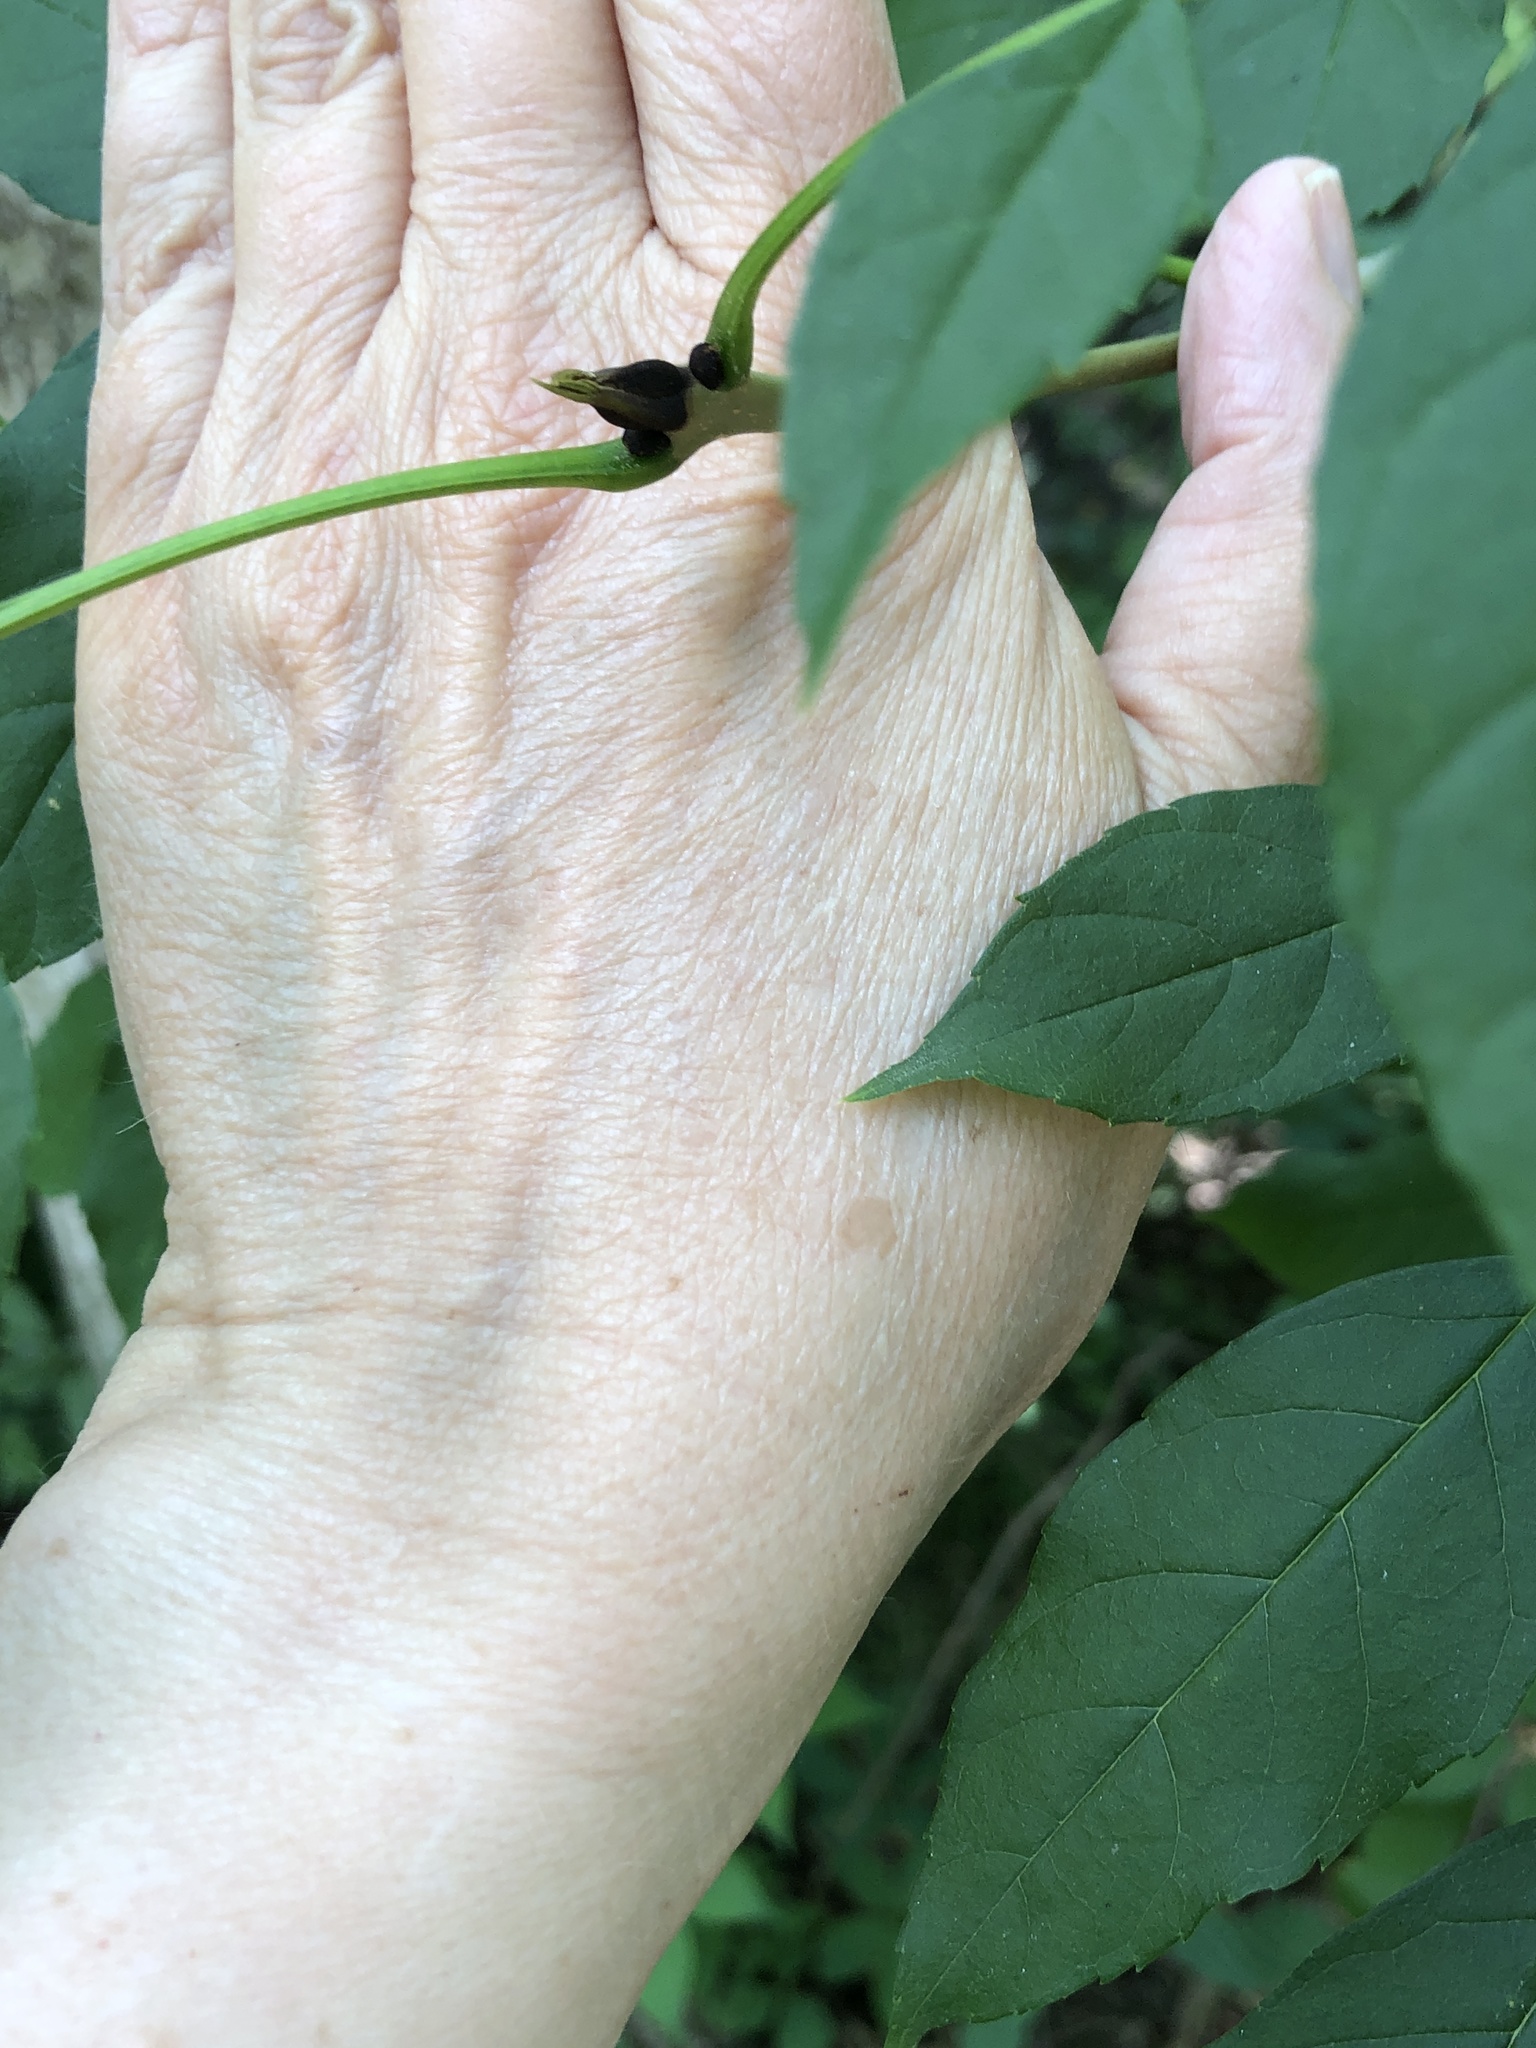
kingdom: Plantae
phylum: Tracheophyta
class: Magnoliopsida
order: Lamiales
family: Oleaceae
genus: Fraxinus
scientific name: Fraxinus excelsior
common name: European ash
